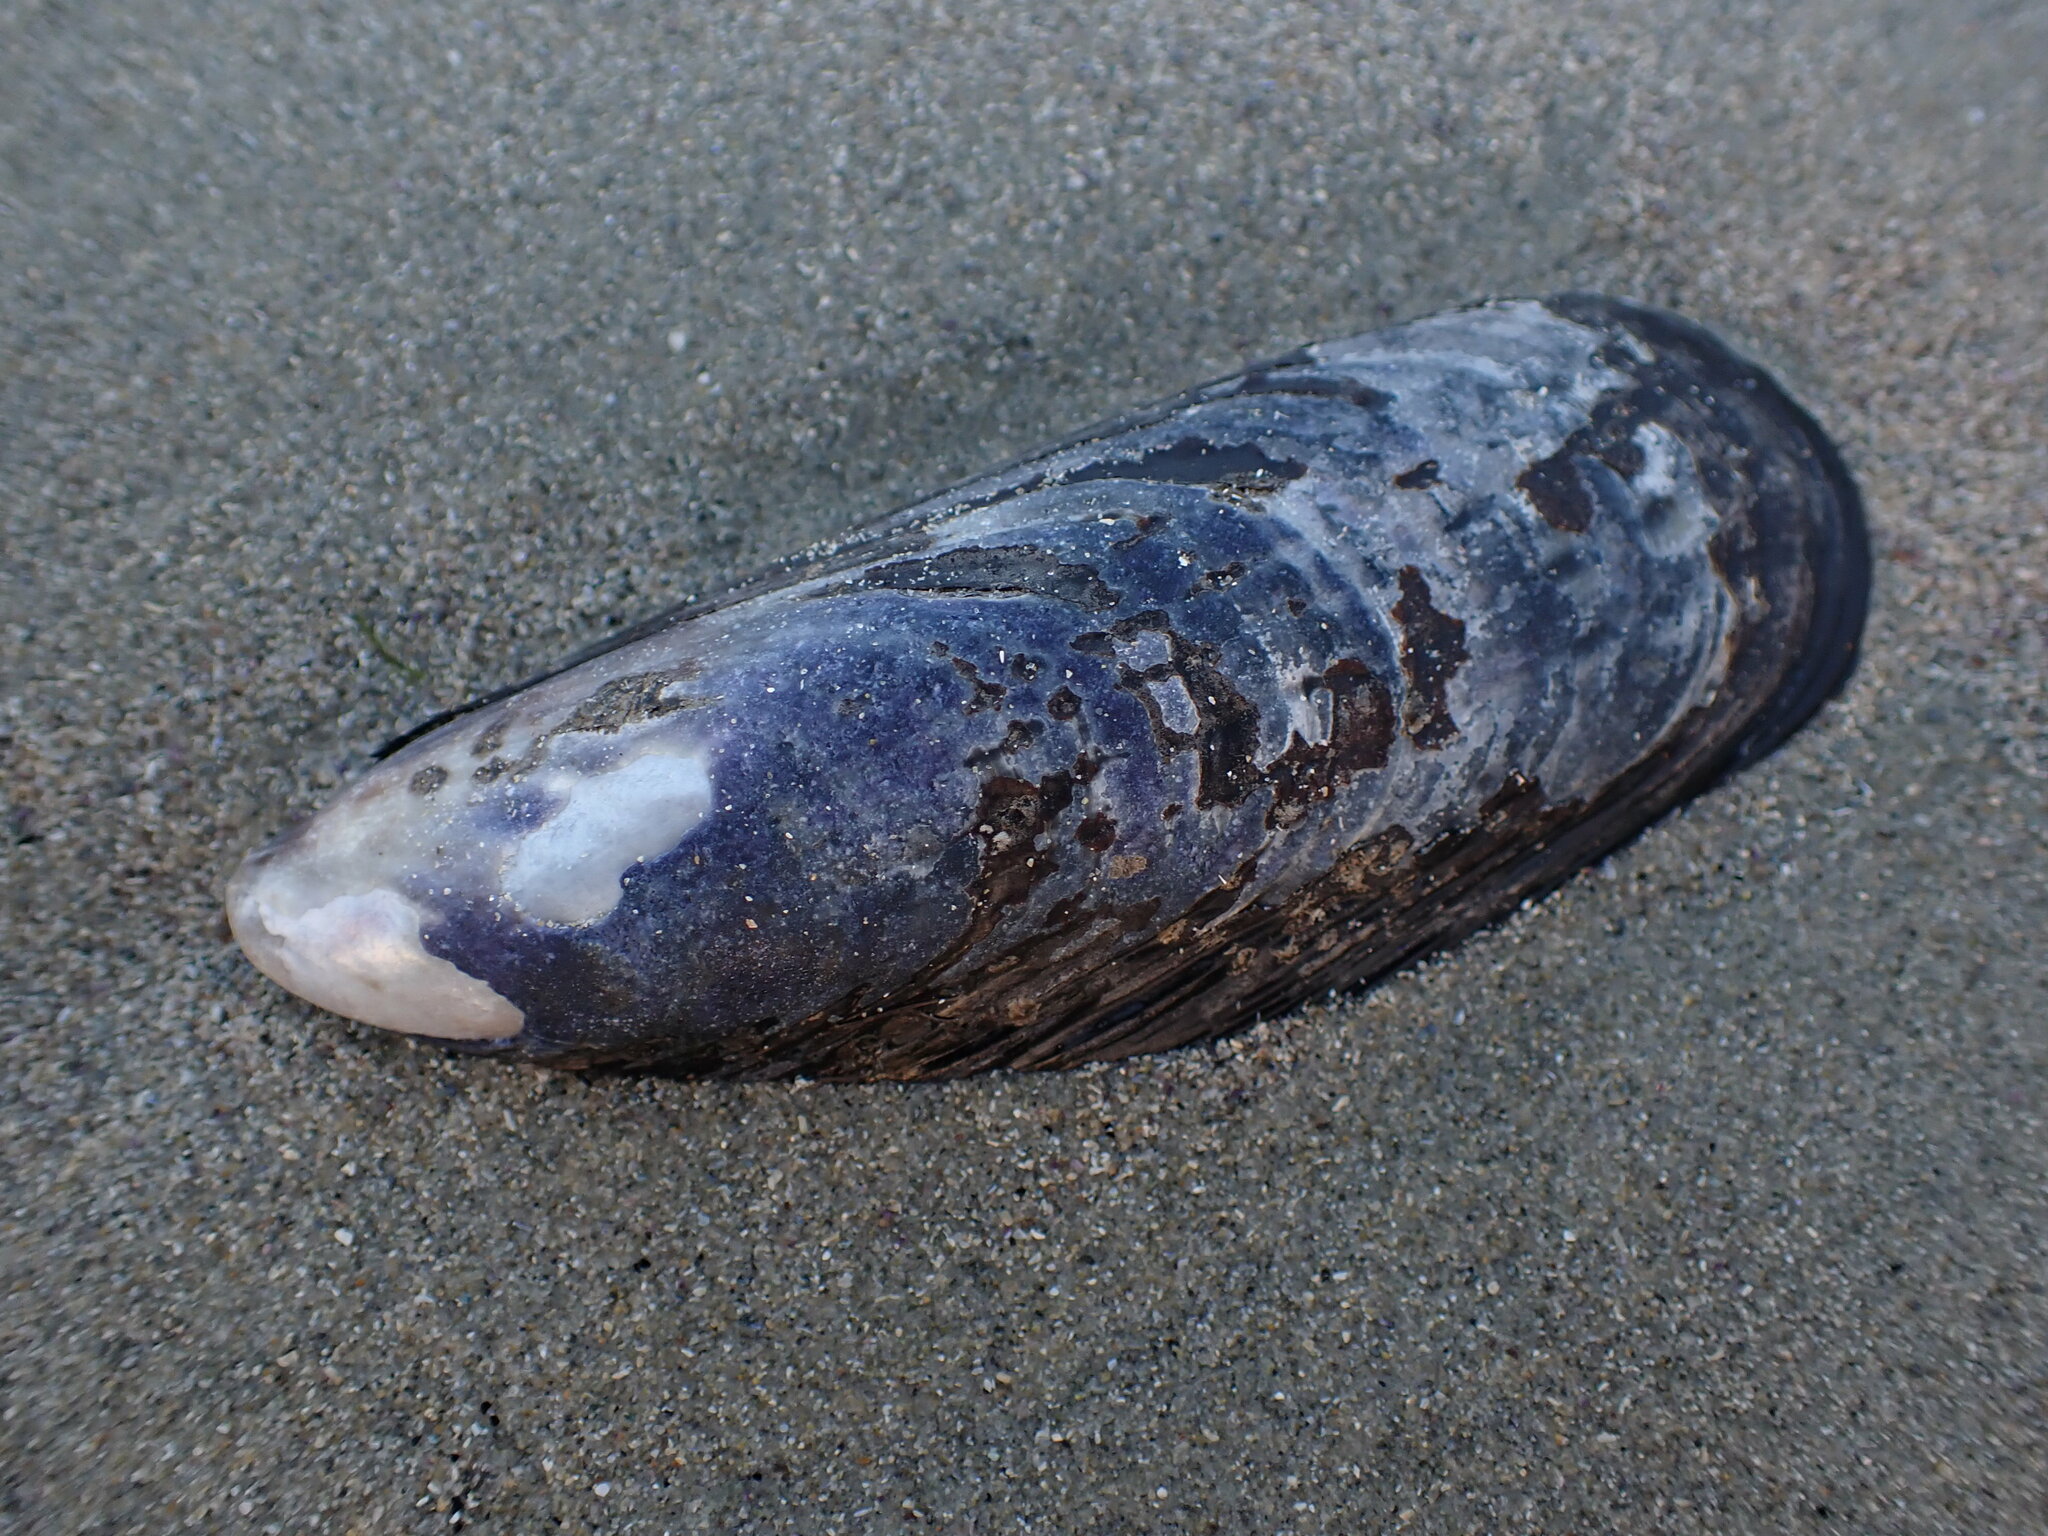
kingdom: Animalia
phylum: Mollusca
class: Bivalvia
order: Mytilida
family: Mytilidae
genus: Mytilus
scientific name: Mytilus californianus
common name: California mussel
